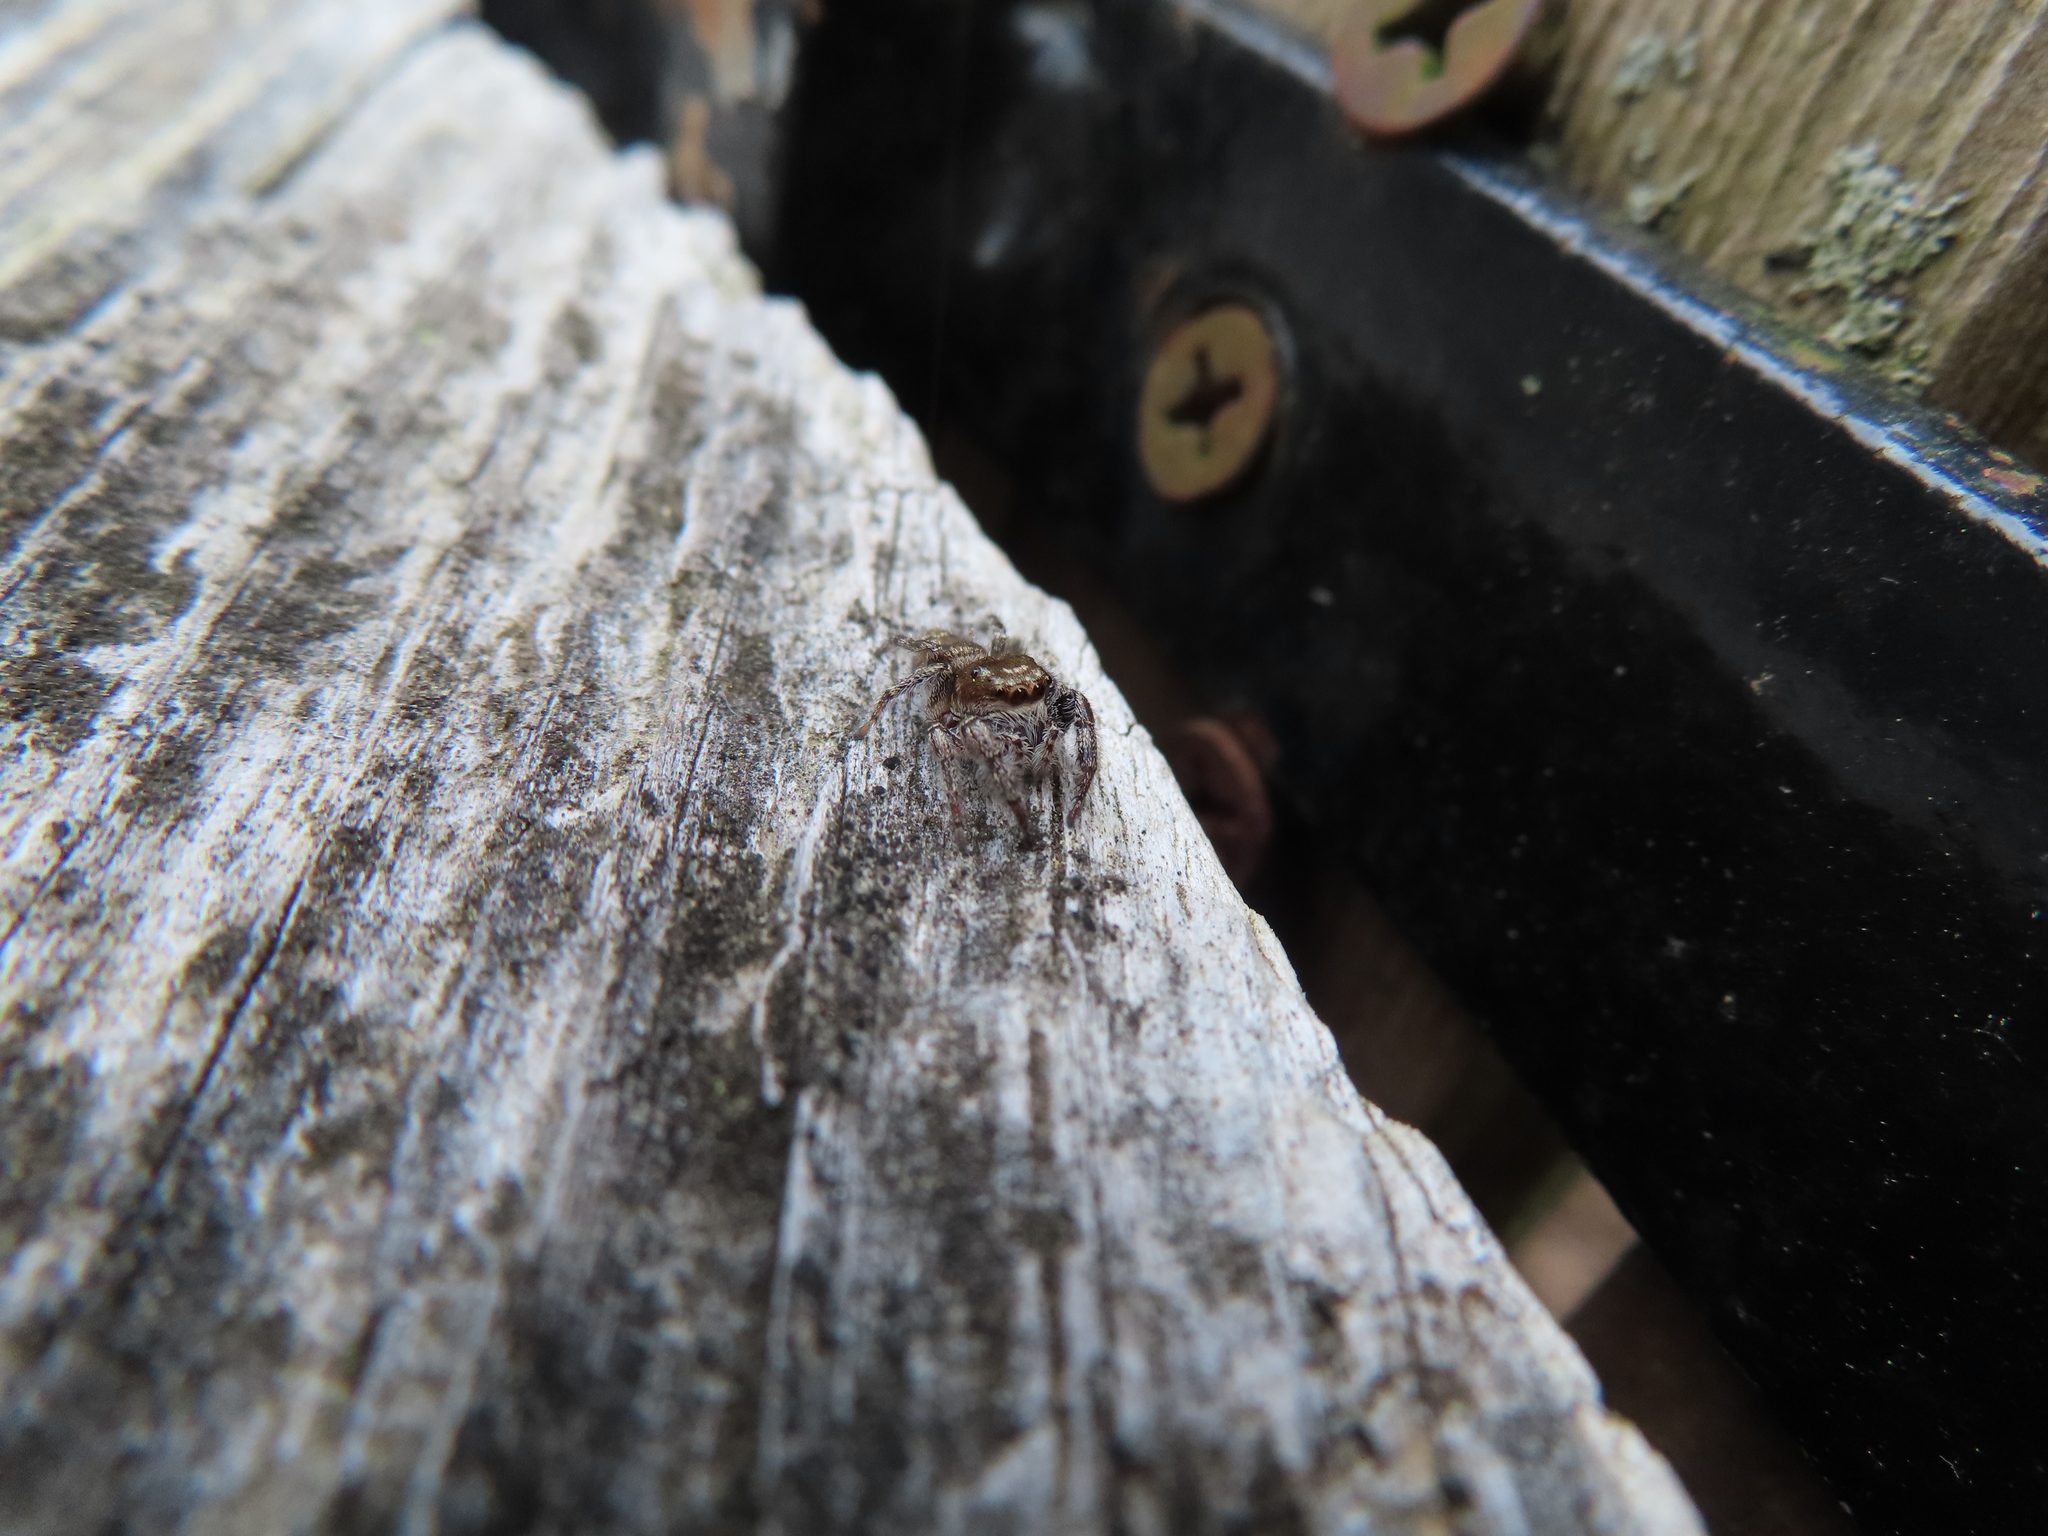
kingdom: Animalia
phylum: Arthropoda
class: Arachnida
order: Araneae
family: Salticidae
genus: Eris
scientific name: Eris militaris
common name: Bronze jumper
